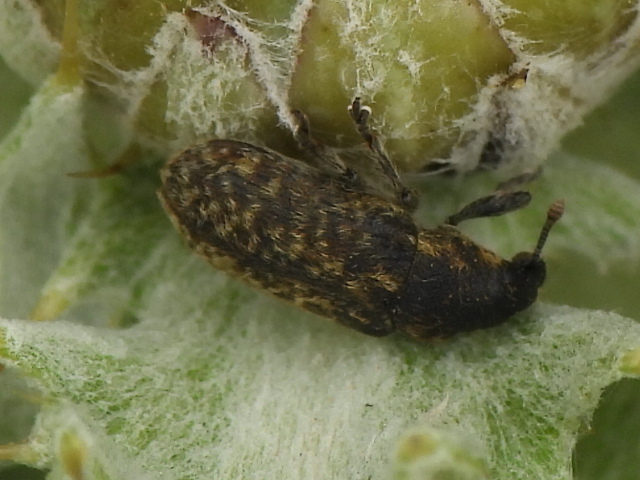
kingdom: Animalia
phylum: Arthropoda
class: Insecta
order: Coleoptera
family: Curculionidae
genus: Rhinocyllus
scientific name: Rhinocyllus conicus
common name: Weevil
